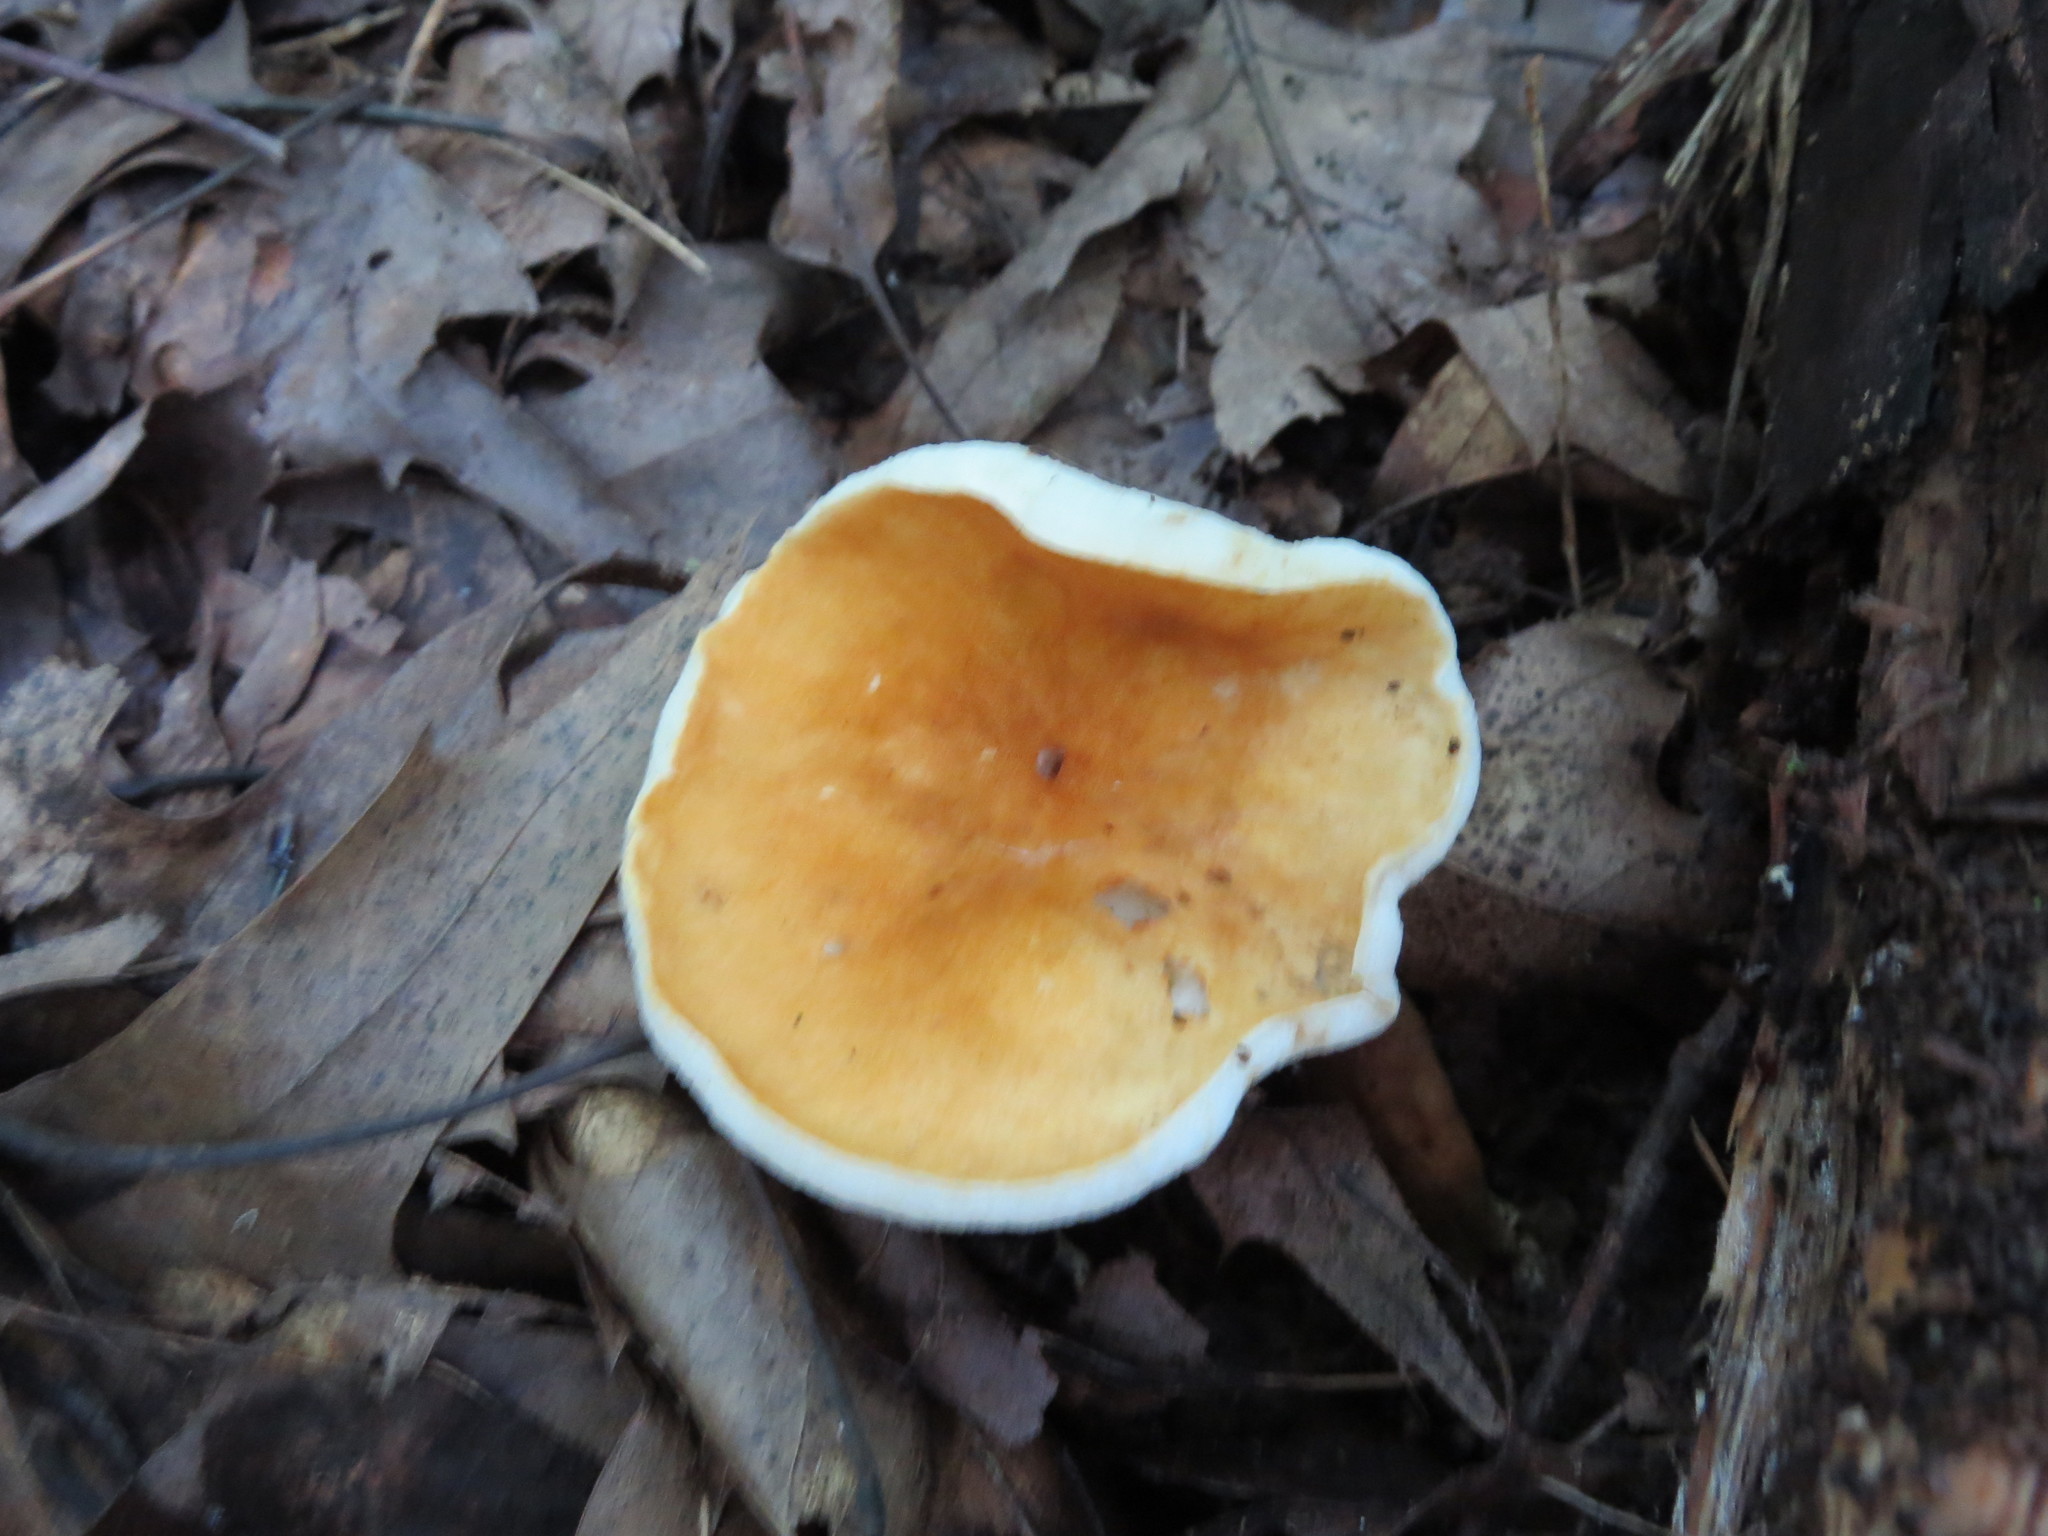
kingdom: Fungi
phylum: Basidiomycota
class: Agaricomycetes
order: Boletales
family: Gyroporaceae
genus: Gyroporus
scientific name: Gyroporus castaneus
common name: Chestnut bolete
